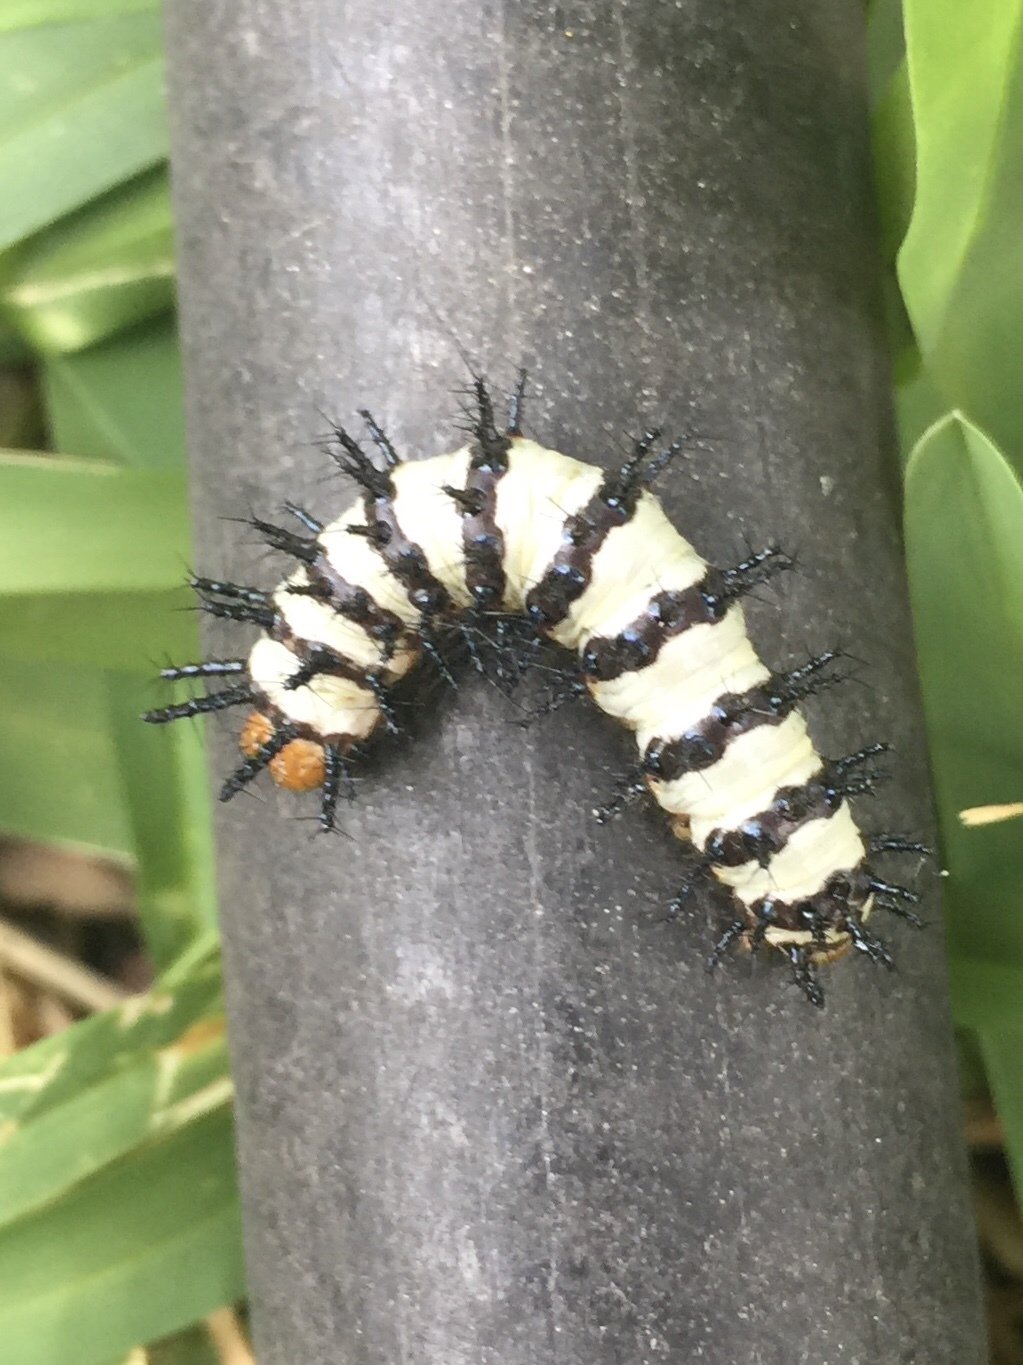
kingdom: Animalia
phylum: Arthropoda
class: Insecta
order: Lepidoptera
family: Nymphalidae
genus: Chlosyne
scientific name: Chlosyne janais
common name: Crimson patch
